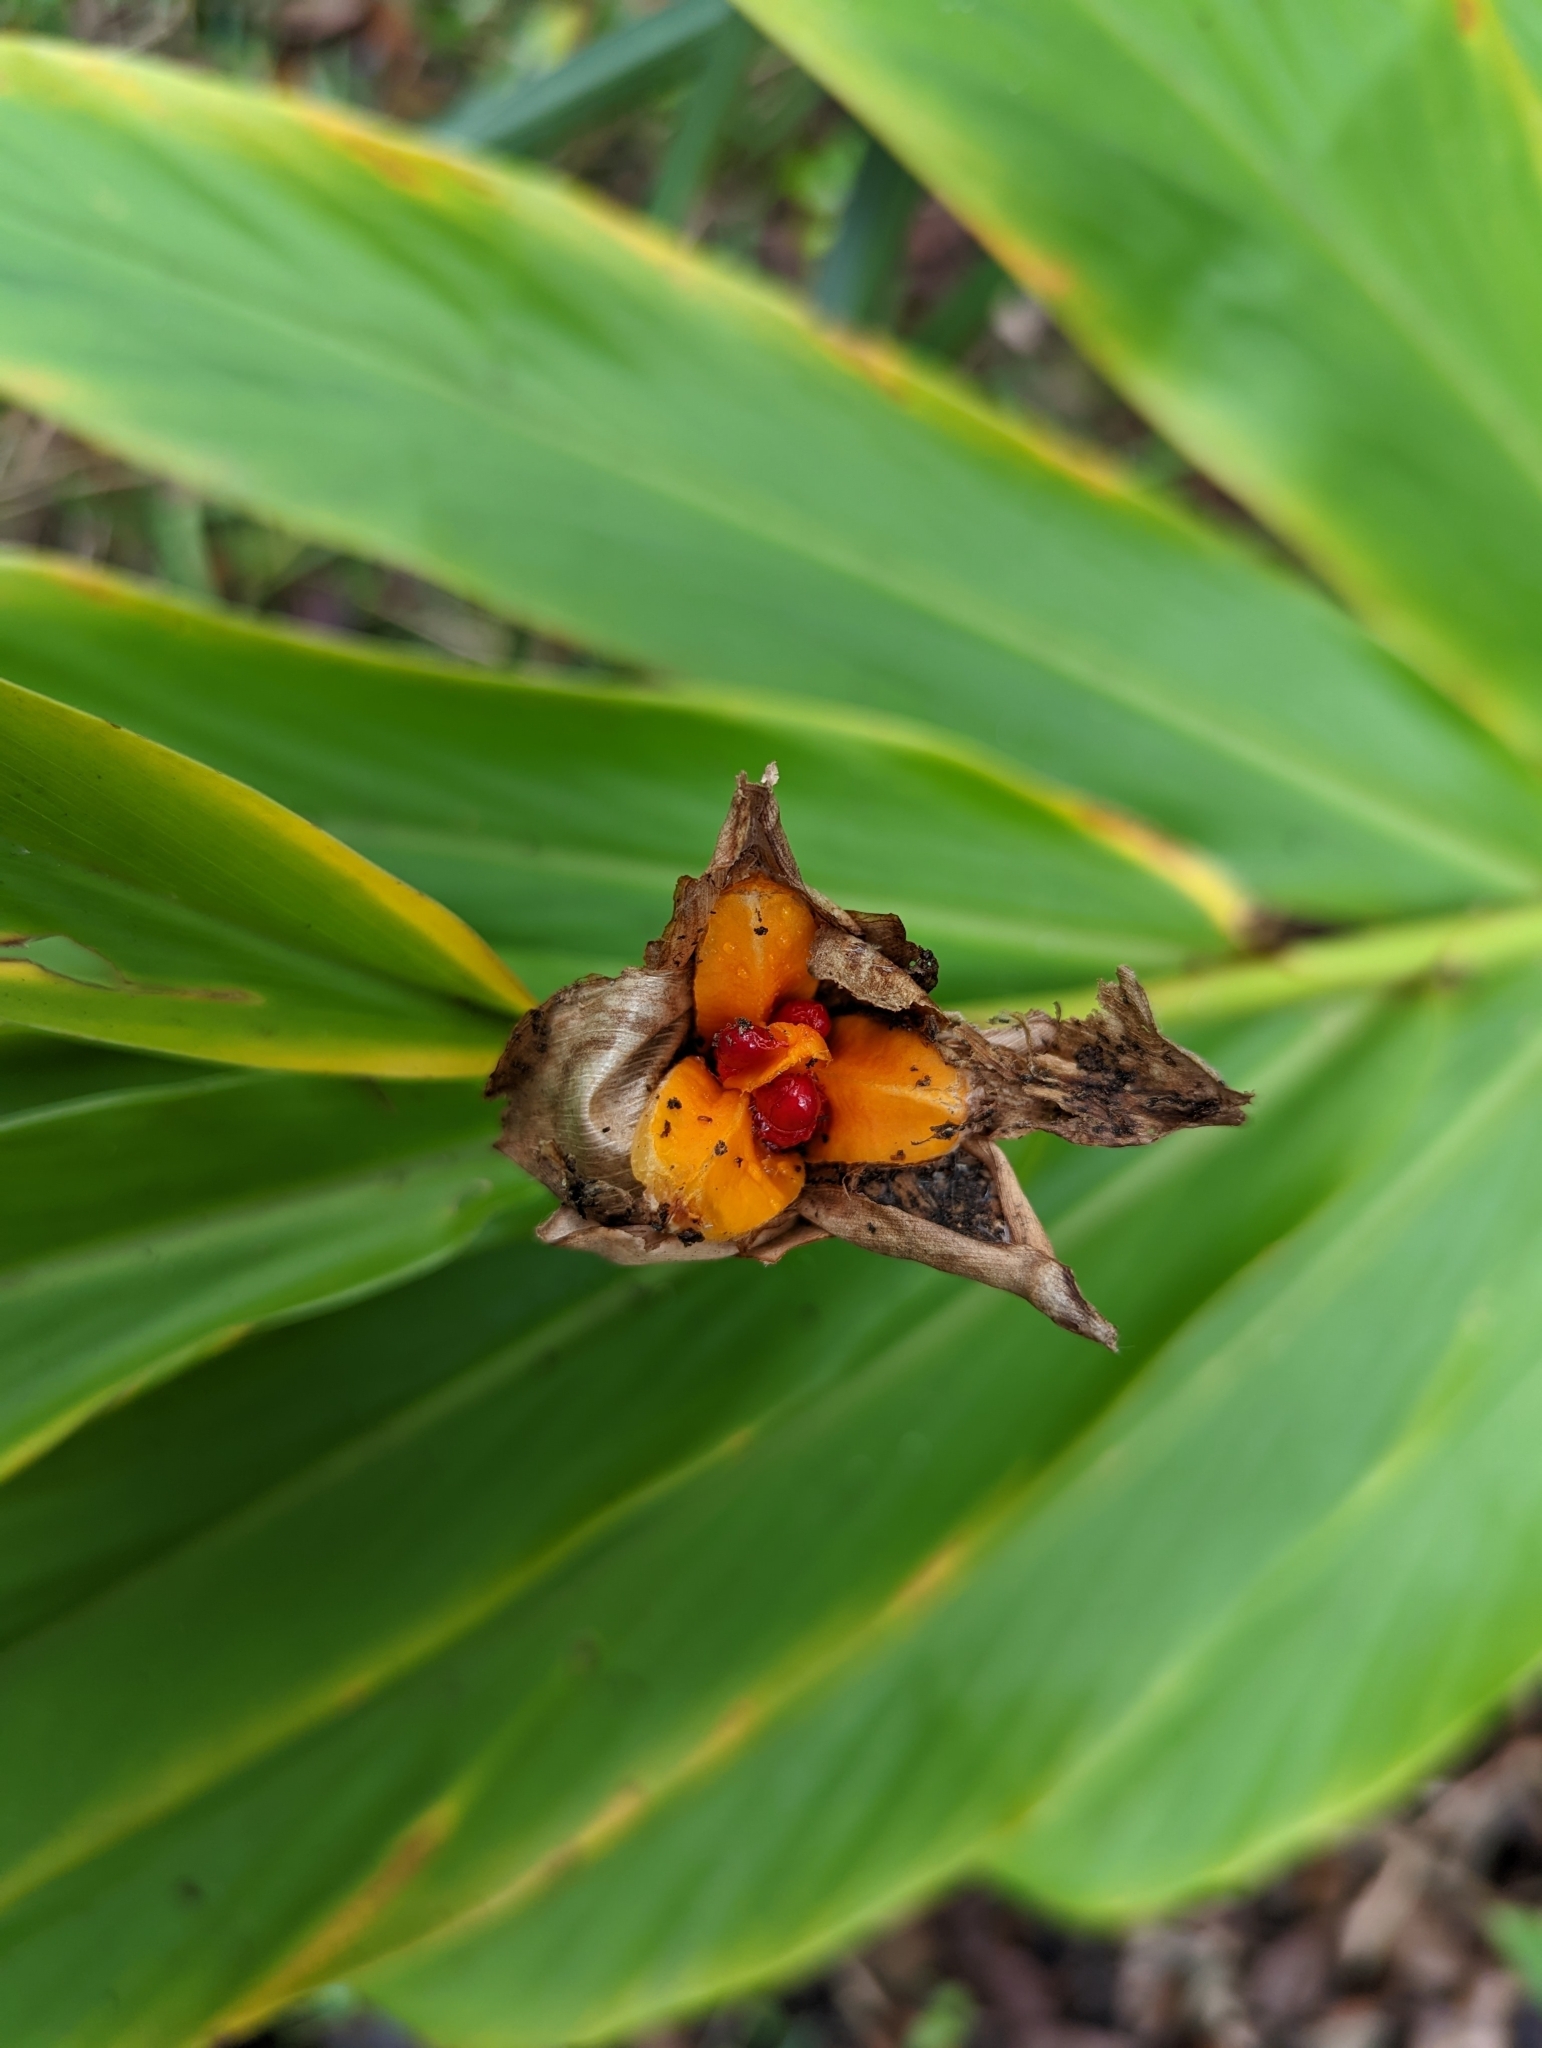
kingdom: Plantae
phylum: Tracheophyta
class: Liliopsida
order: Zingiberales
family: Zingiberaceae
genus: Hedychium
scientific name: Hedychium coronarium
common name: White garland-lily
